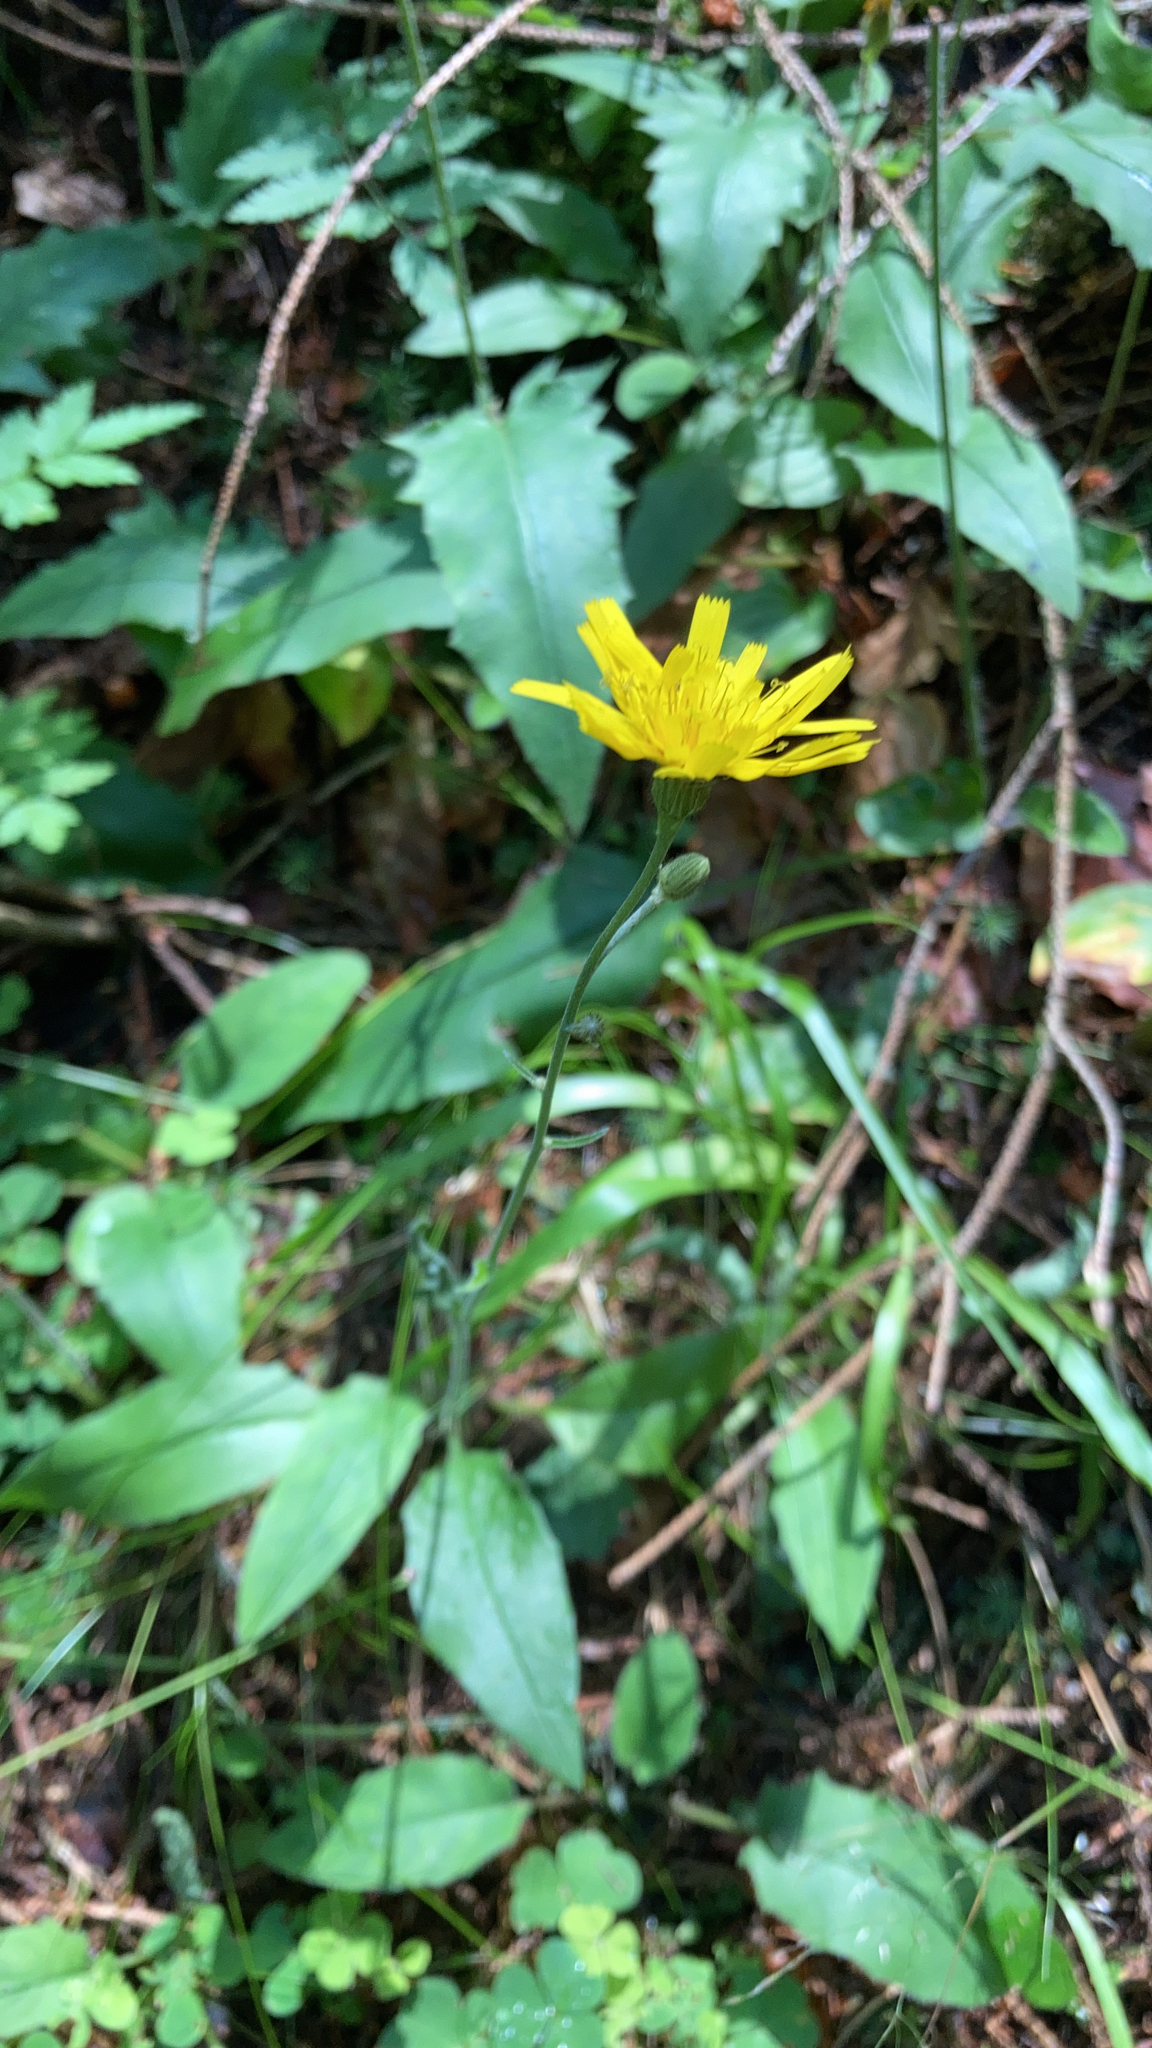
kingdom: Plantae
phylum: Tracheophyta
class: Magnoliopsida
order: Asterales
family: Asteraceae
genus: Hieracium
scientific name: Hieracium murorum
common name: Wall hawkweed
